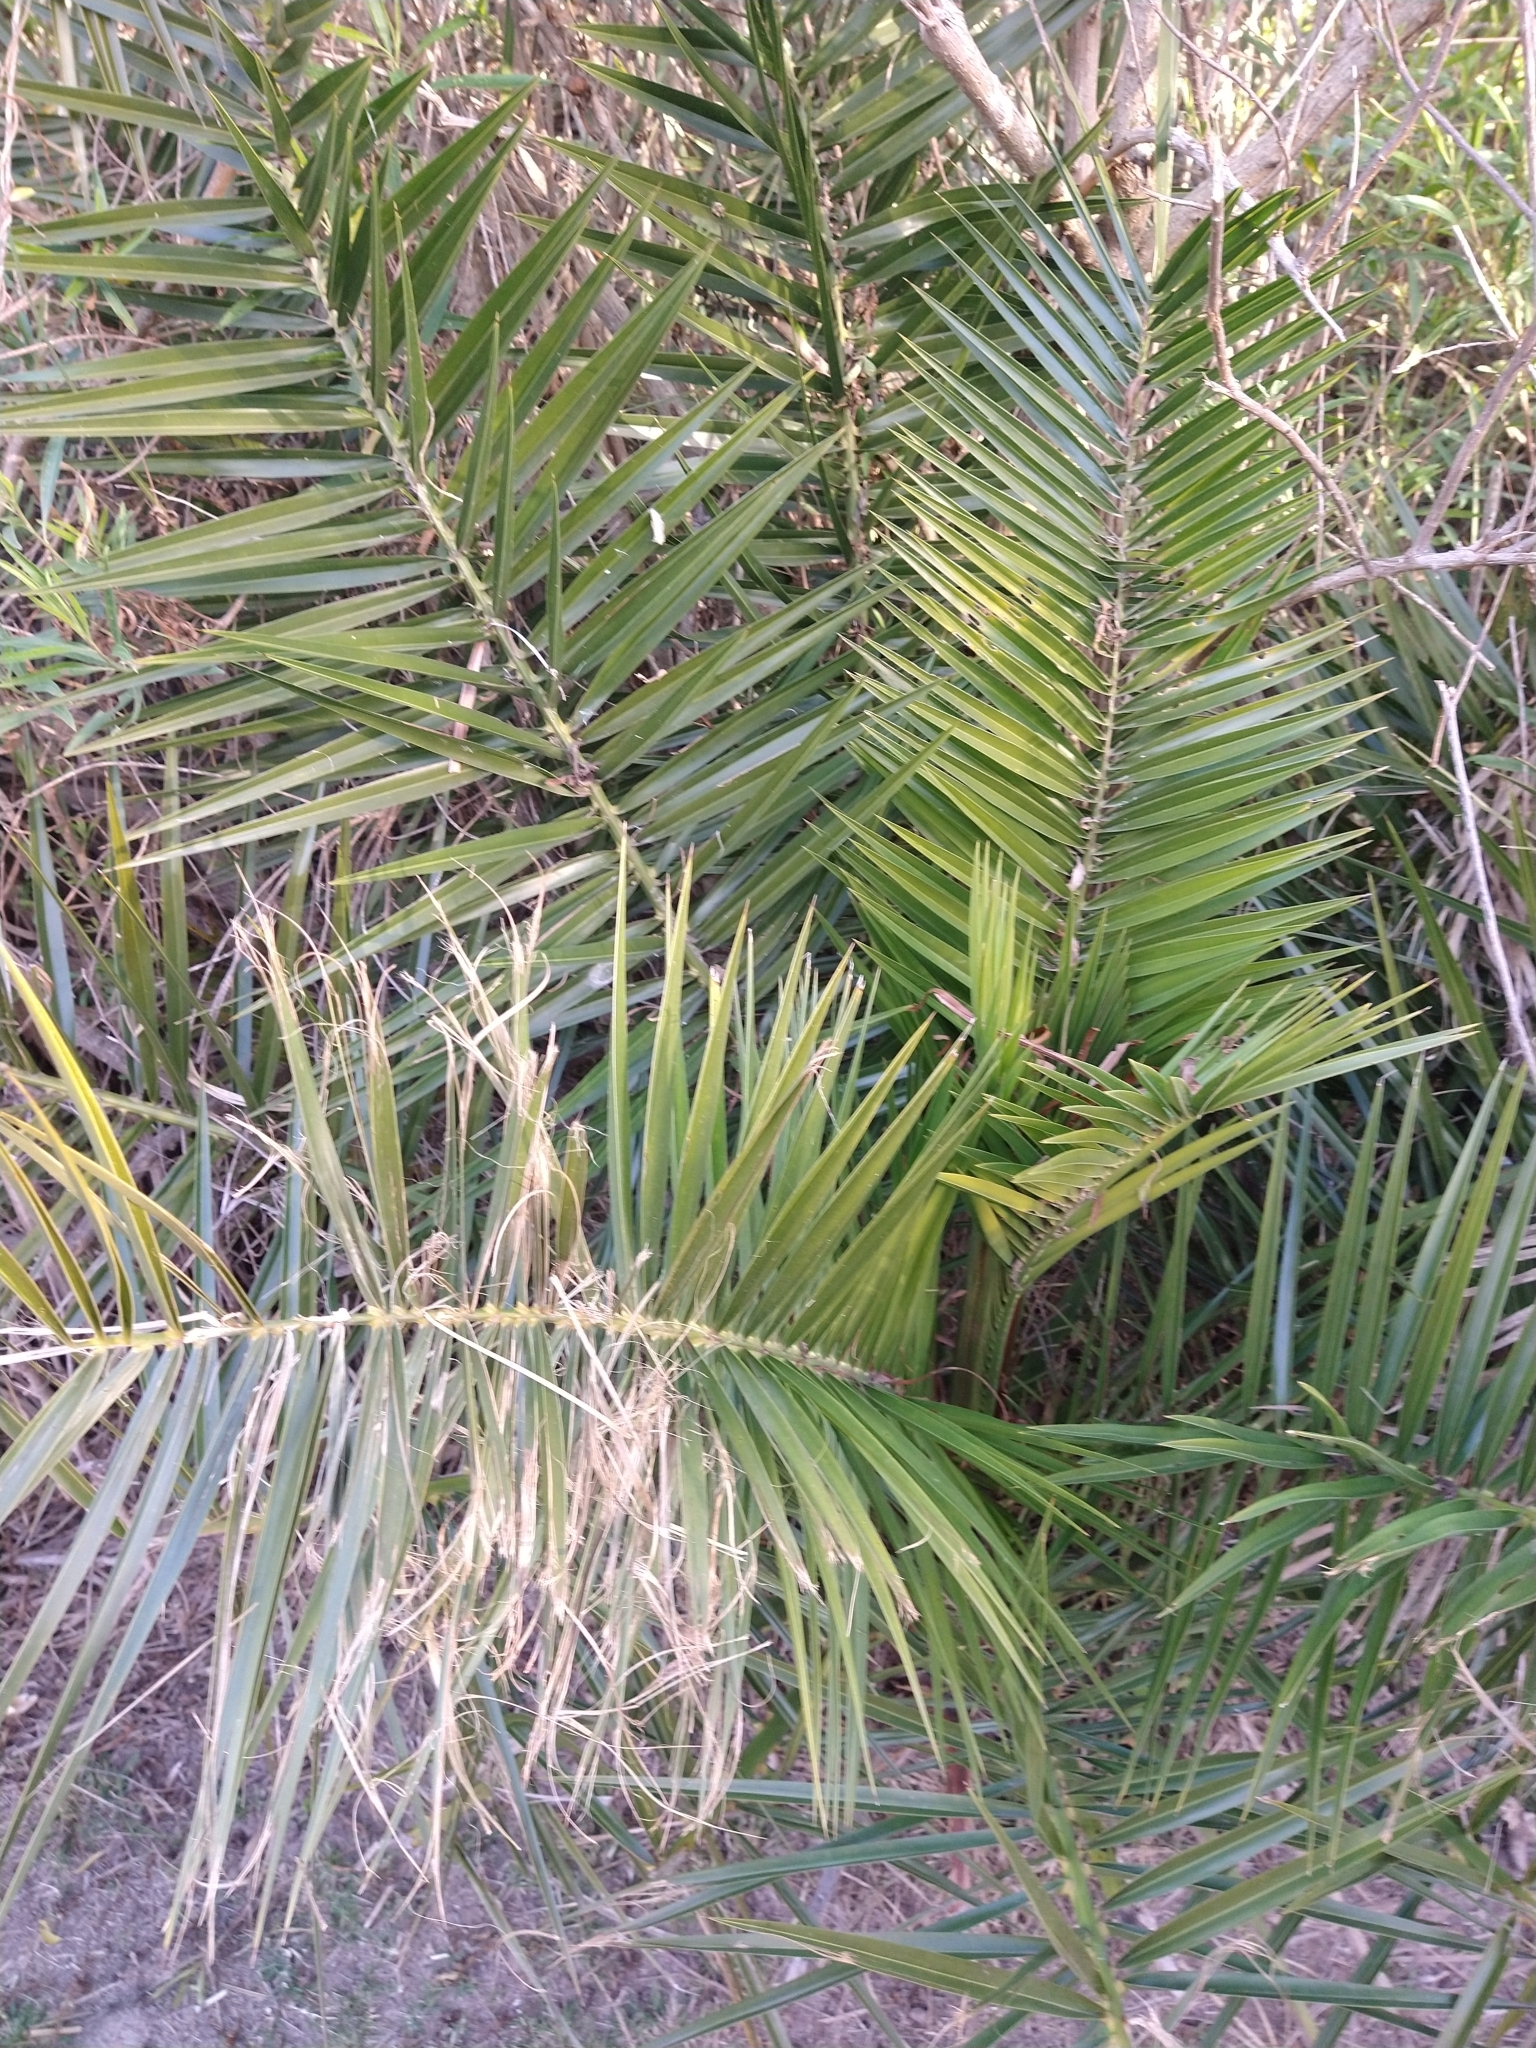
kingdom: Plantae
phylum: Tracheophyta
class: Liliopsida
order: Arecales
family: Arecaceae
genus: Phoenix
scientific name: Phoenix canariensis
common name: Canary island date palm
